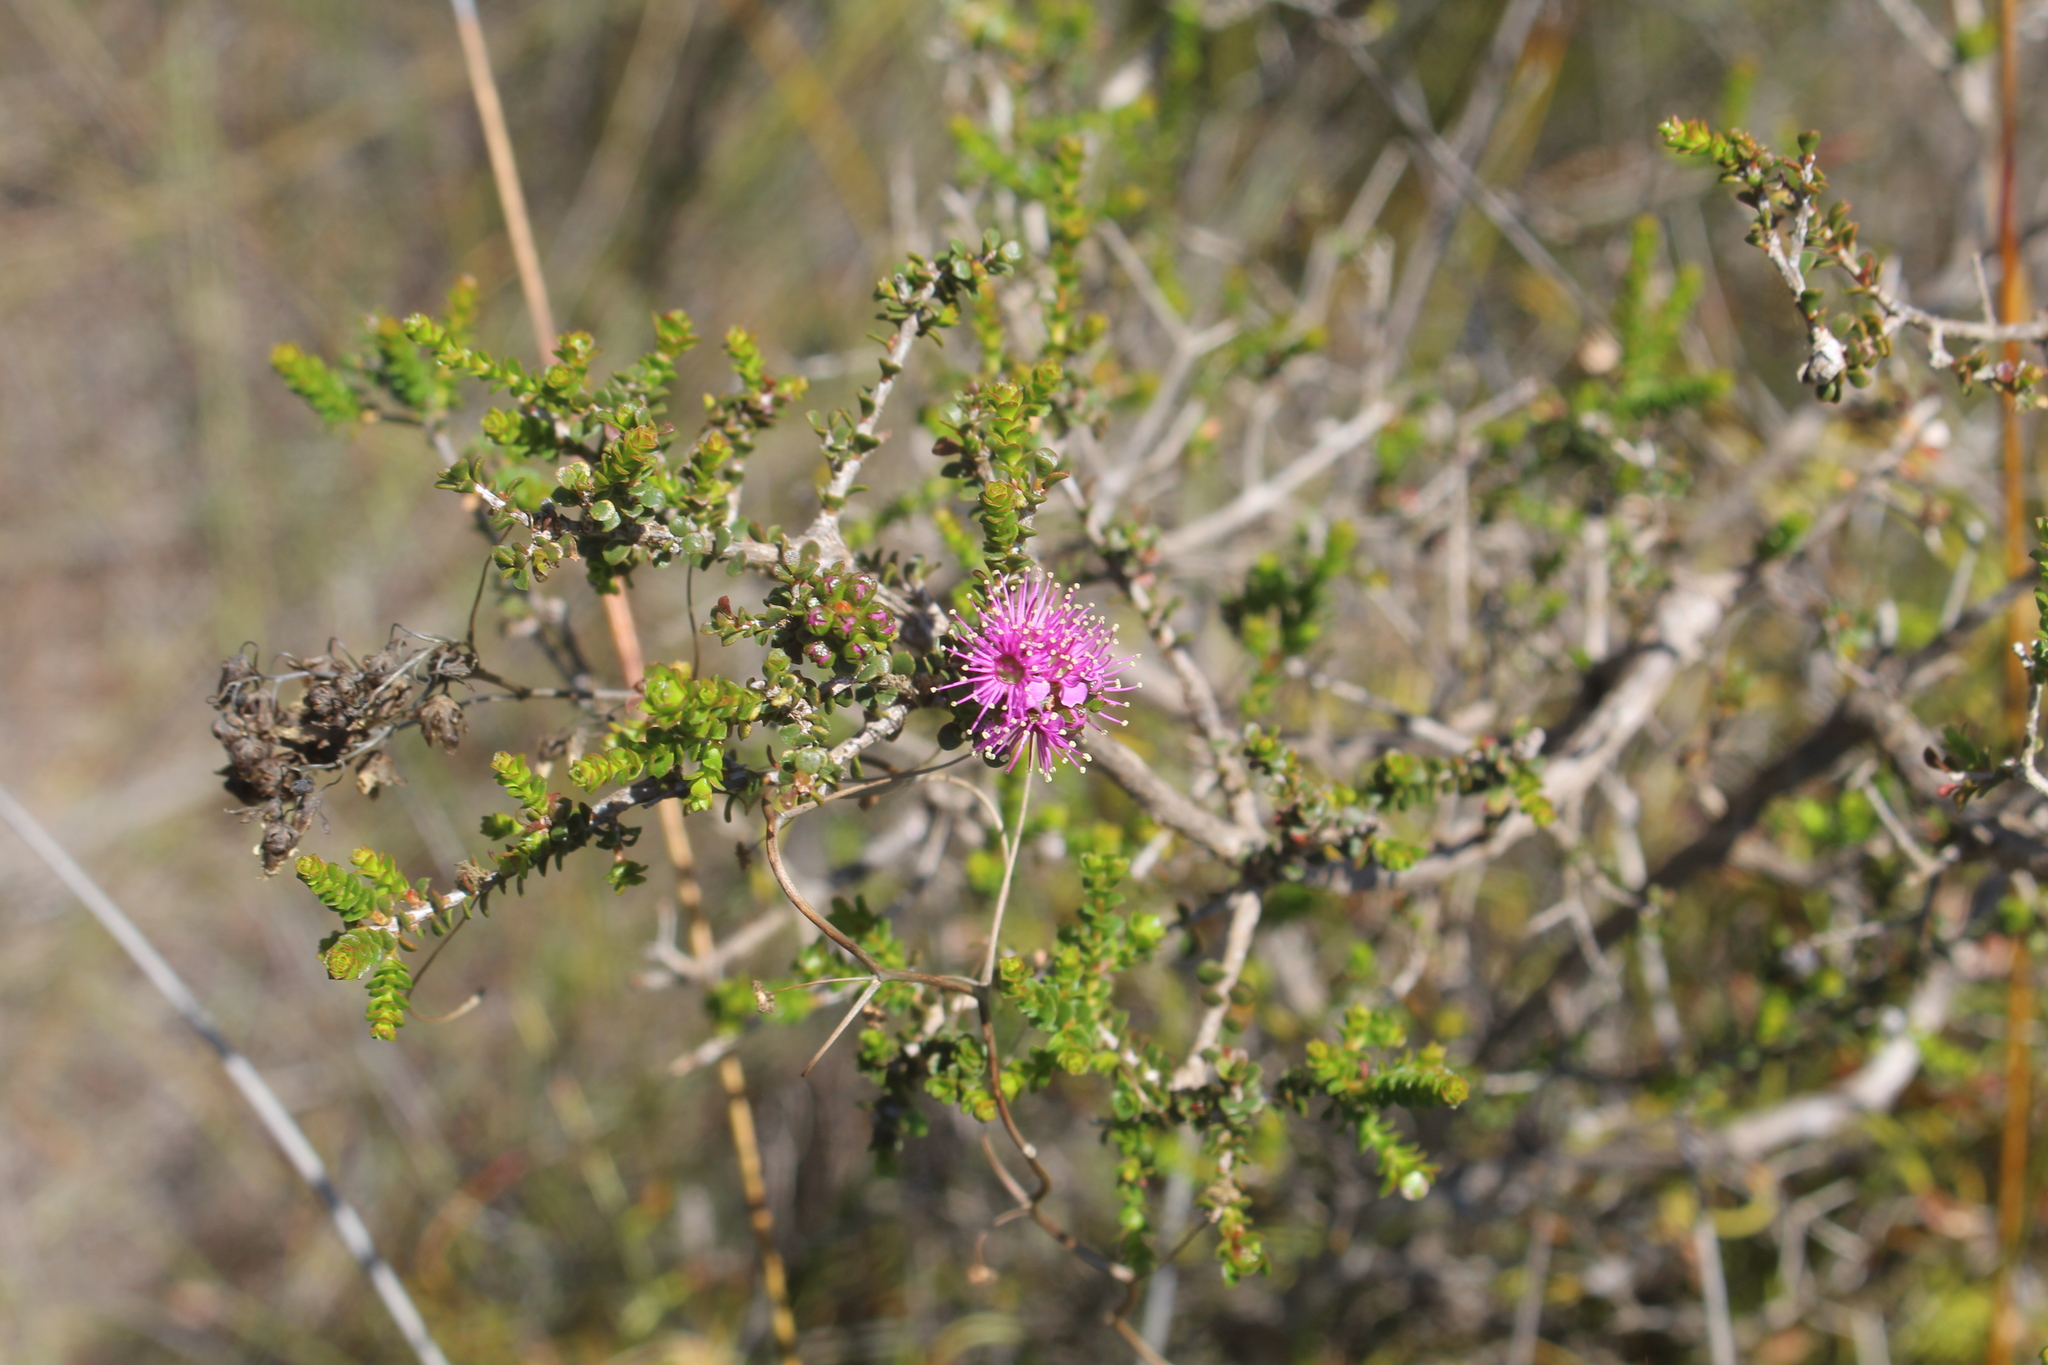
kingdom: Plantae
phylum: Tracheophyta
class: Magnoliopsida
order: Myrtales
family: Myrtaceae
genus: Kunzea
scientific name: Kunzea recurva
